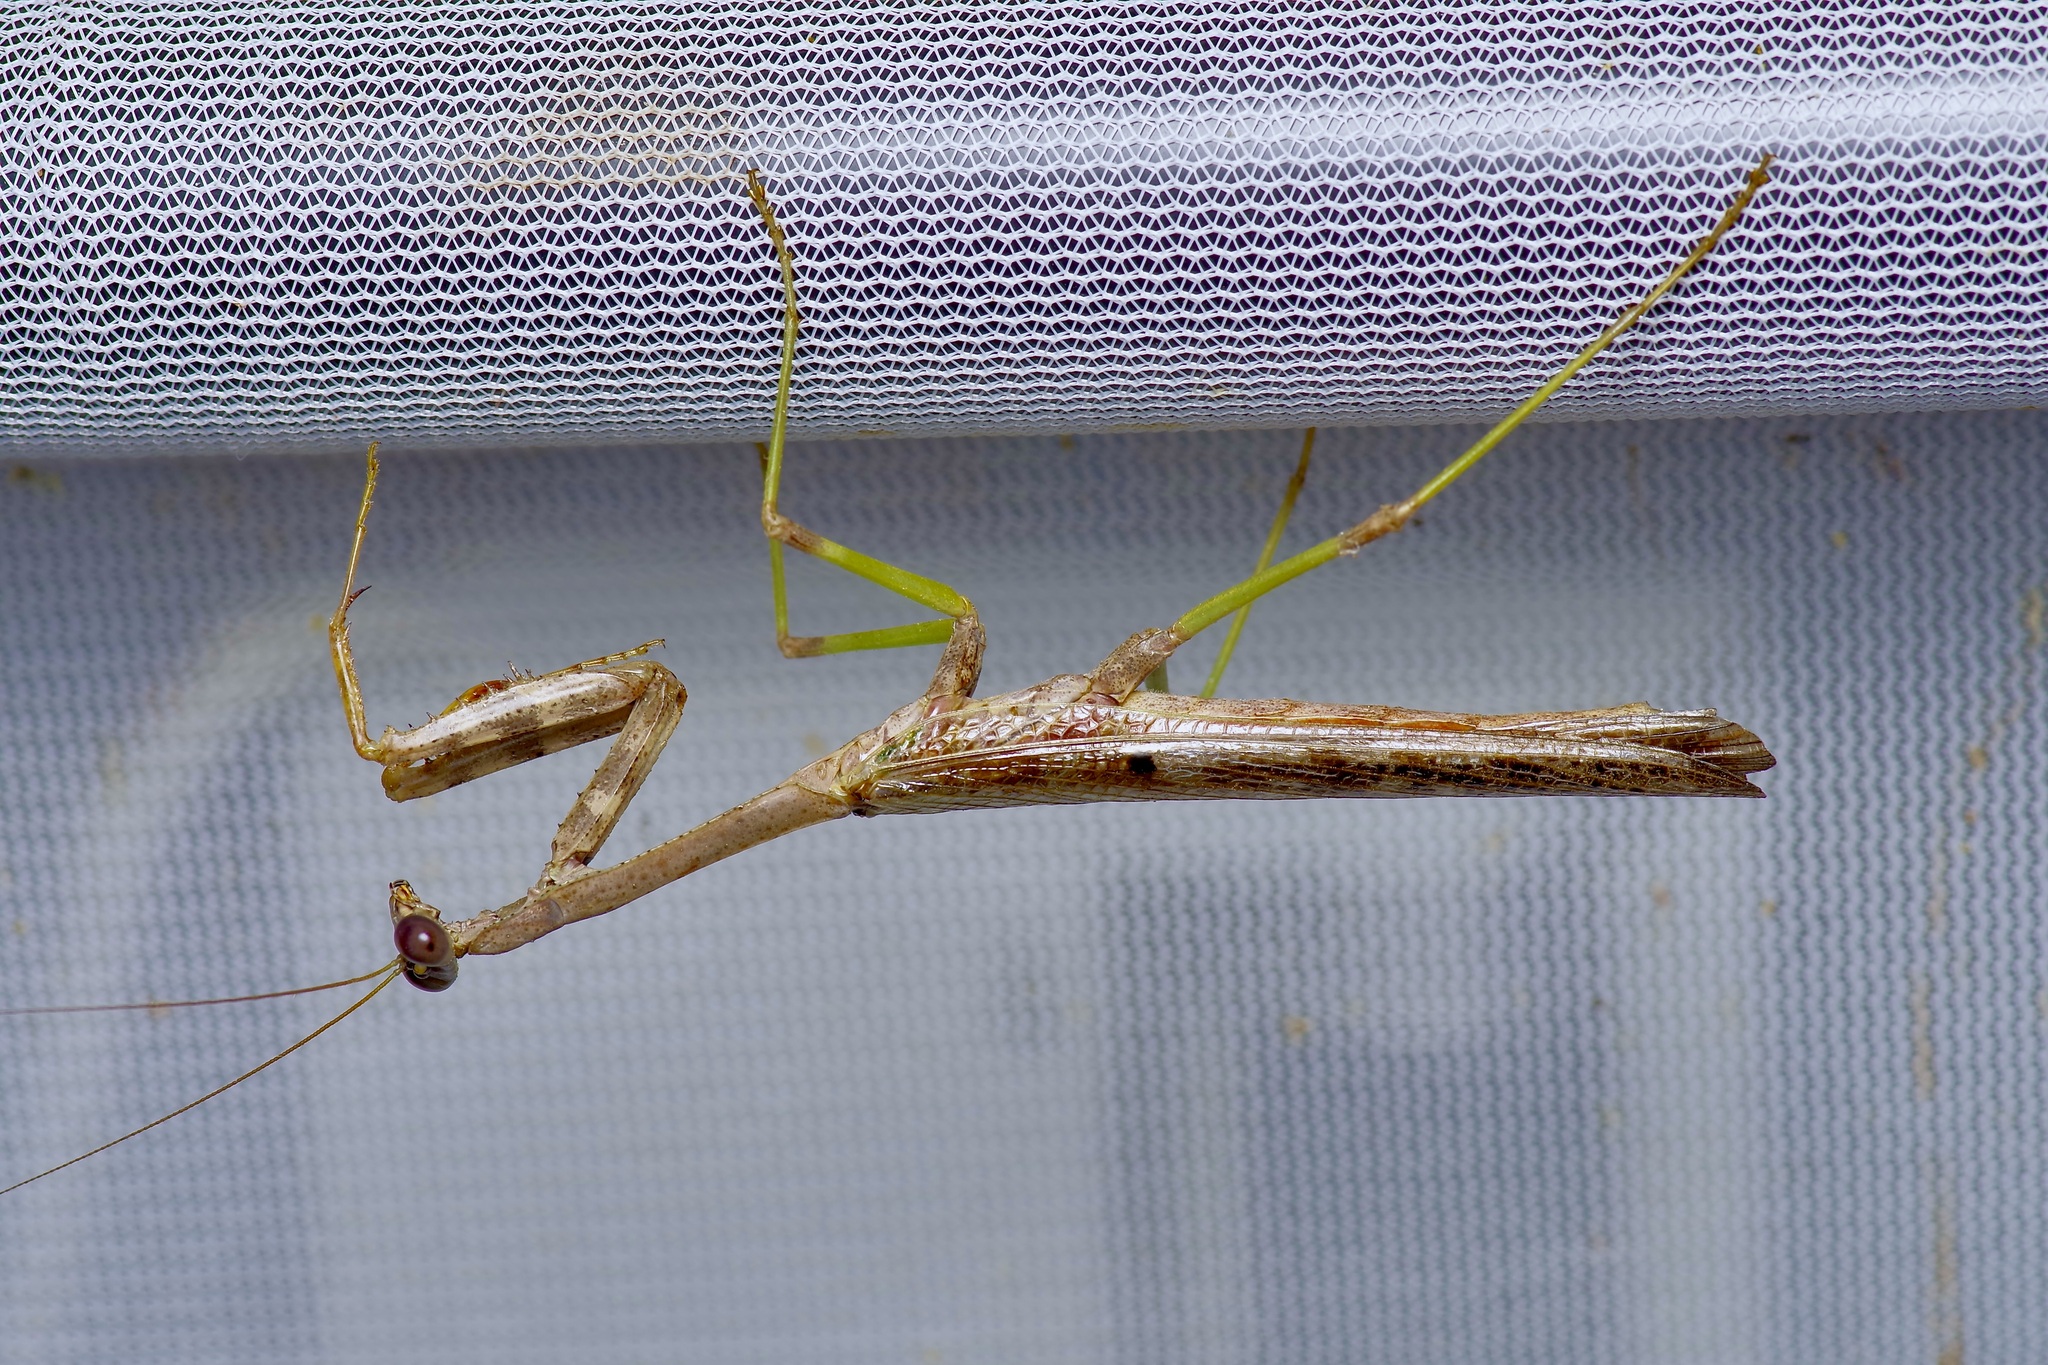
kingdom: Animalia
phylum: Arthropoda
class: Insecta
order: Mantodea
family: Mantidae
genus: Stagmomantis
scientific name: Stagmomantis carolina
